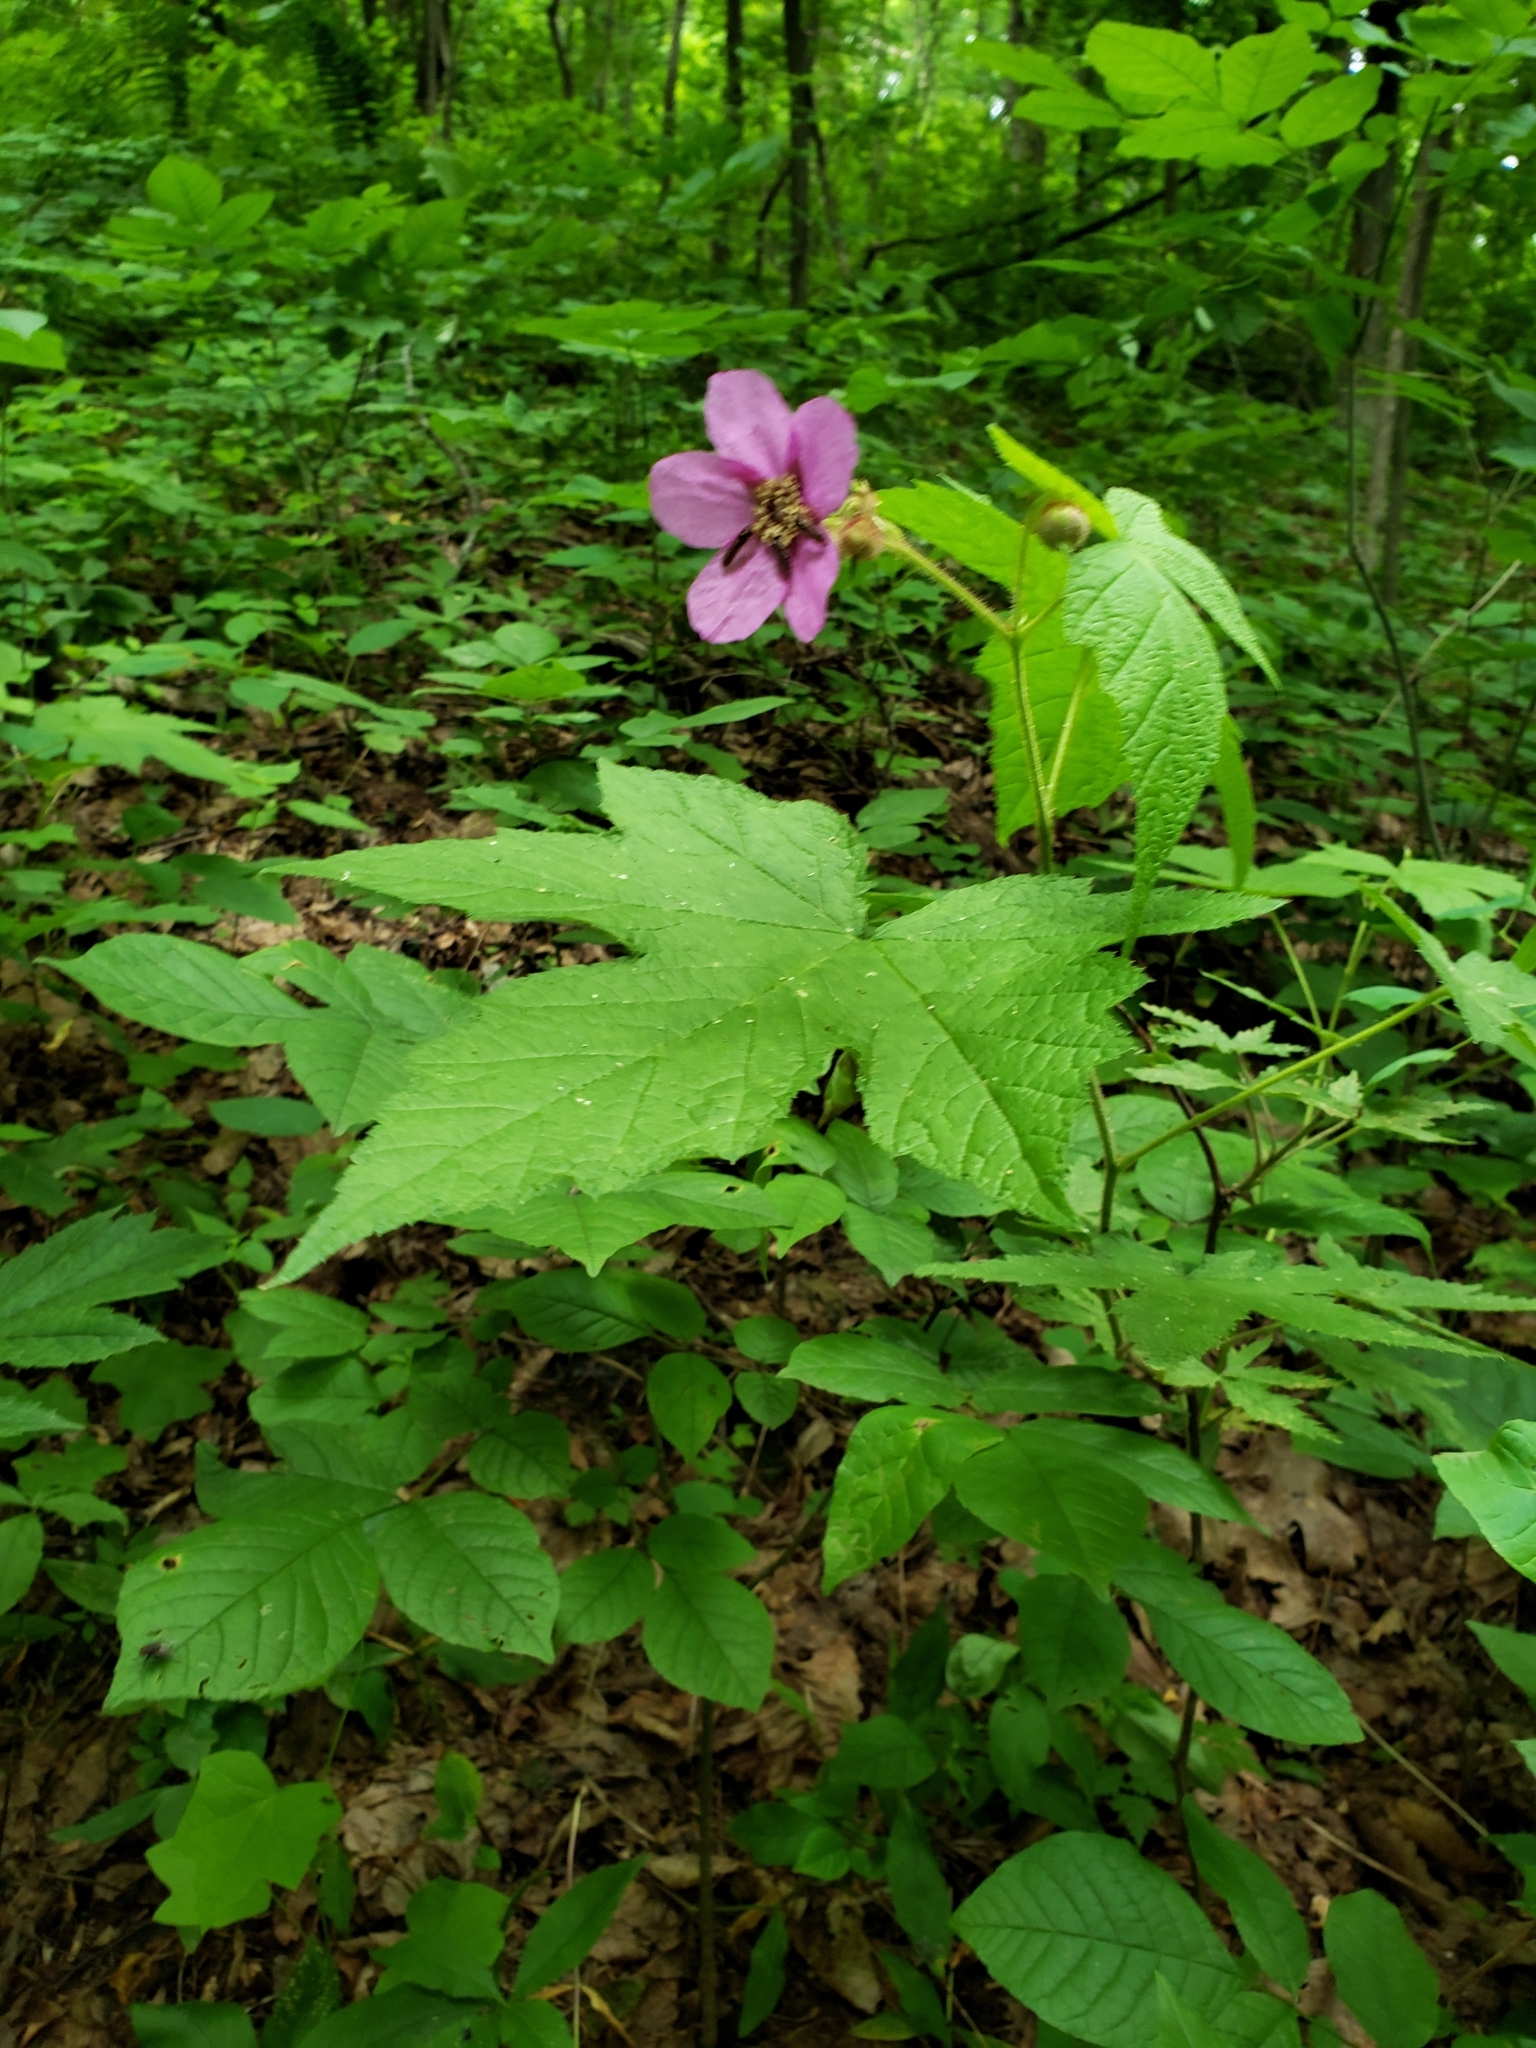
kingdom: Plantae
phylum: Tracheophyta
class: Magnoliopsida
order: Rosales
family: Rosaceae
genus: Rubus
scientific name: Rubus odoratus
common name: Purple-flowered raspberry
